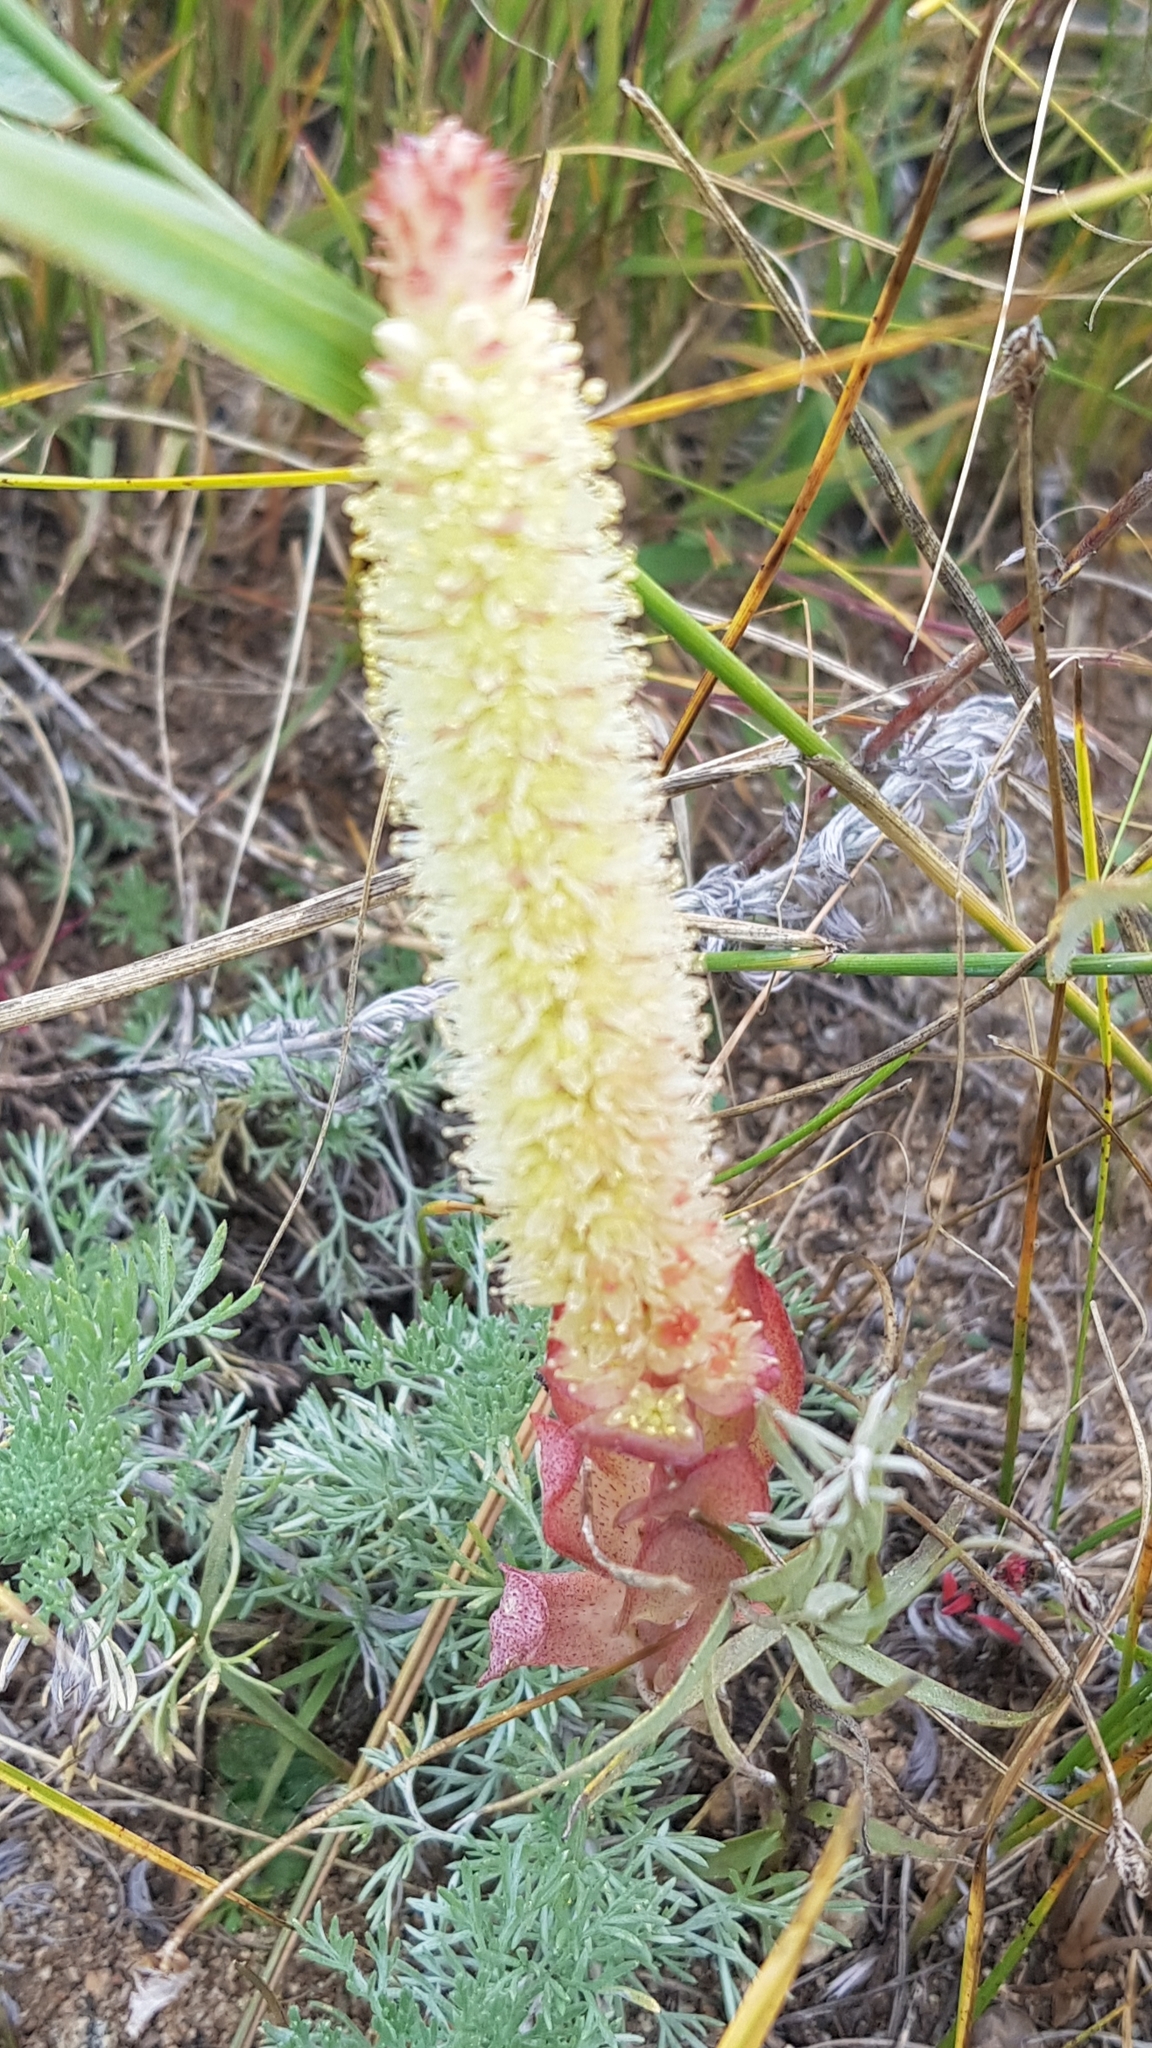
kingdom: Plantae
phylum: Tracheophyta
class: Magnoliopsida
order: Saxifragales
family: Crassulaceae
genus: Orostachys
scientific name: Orostachys malacophylla
